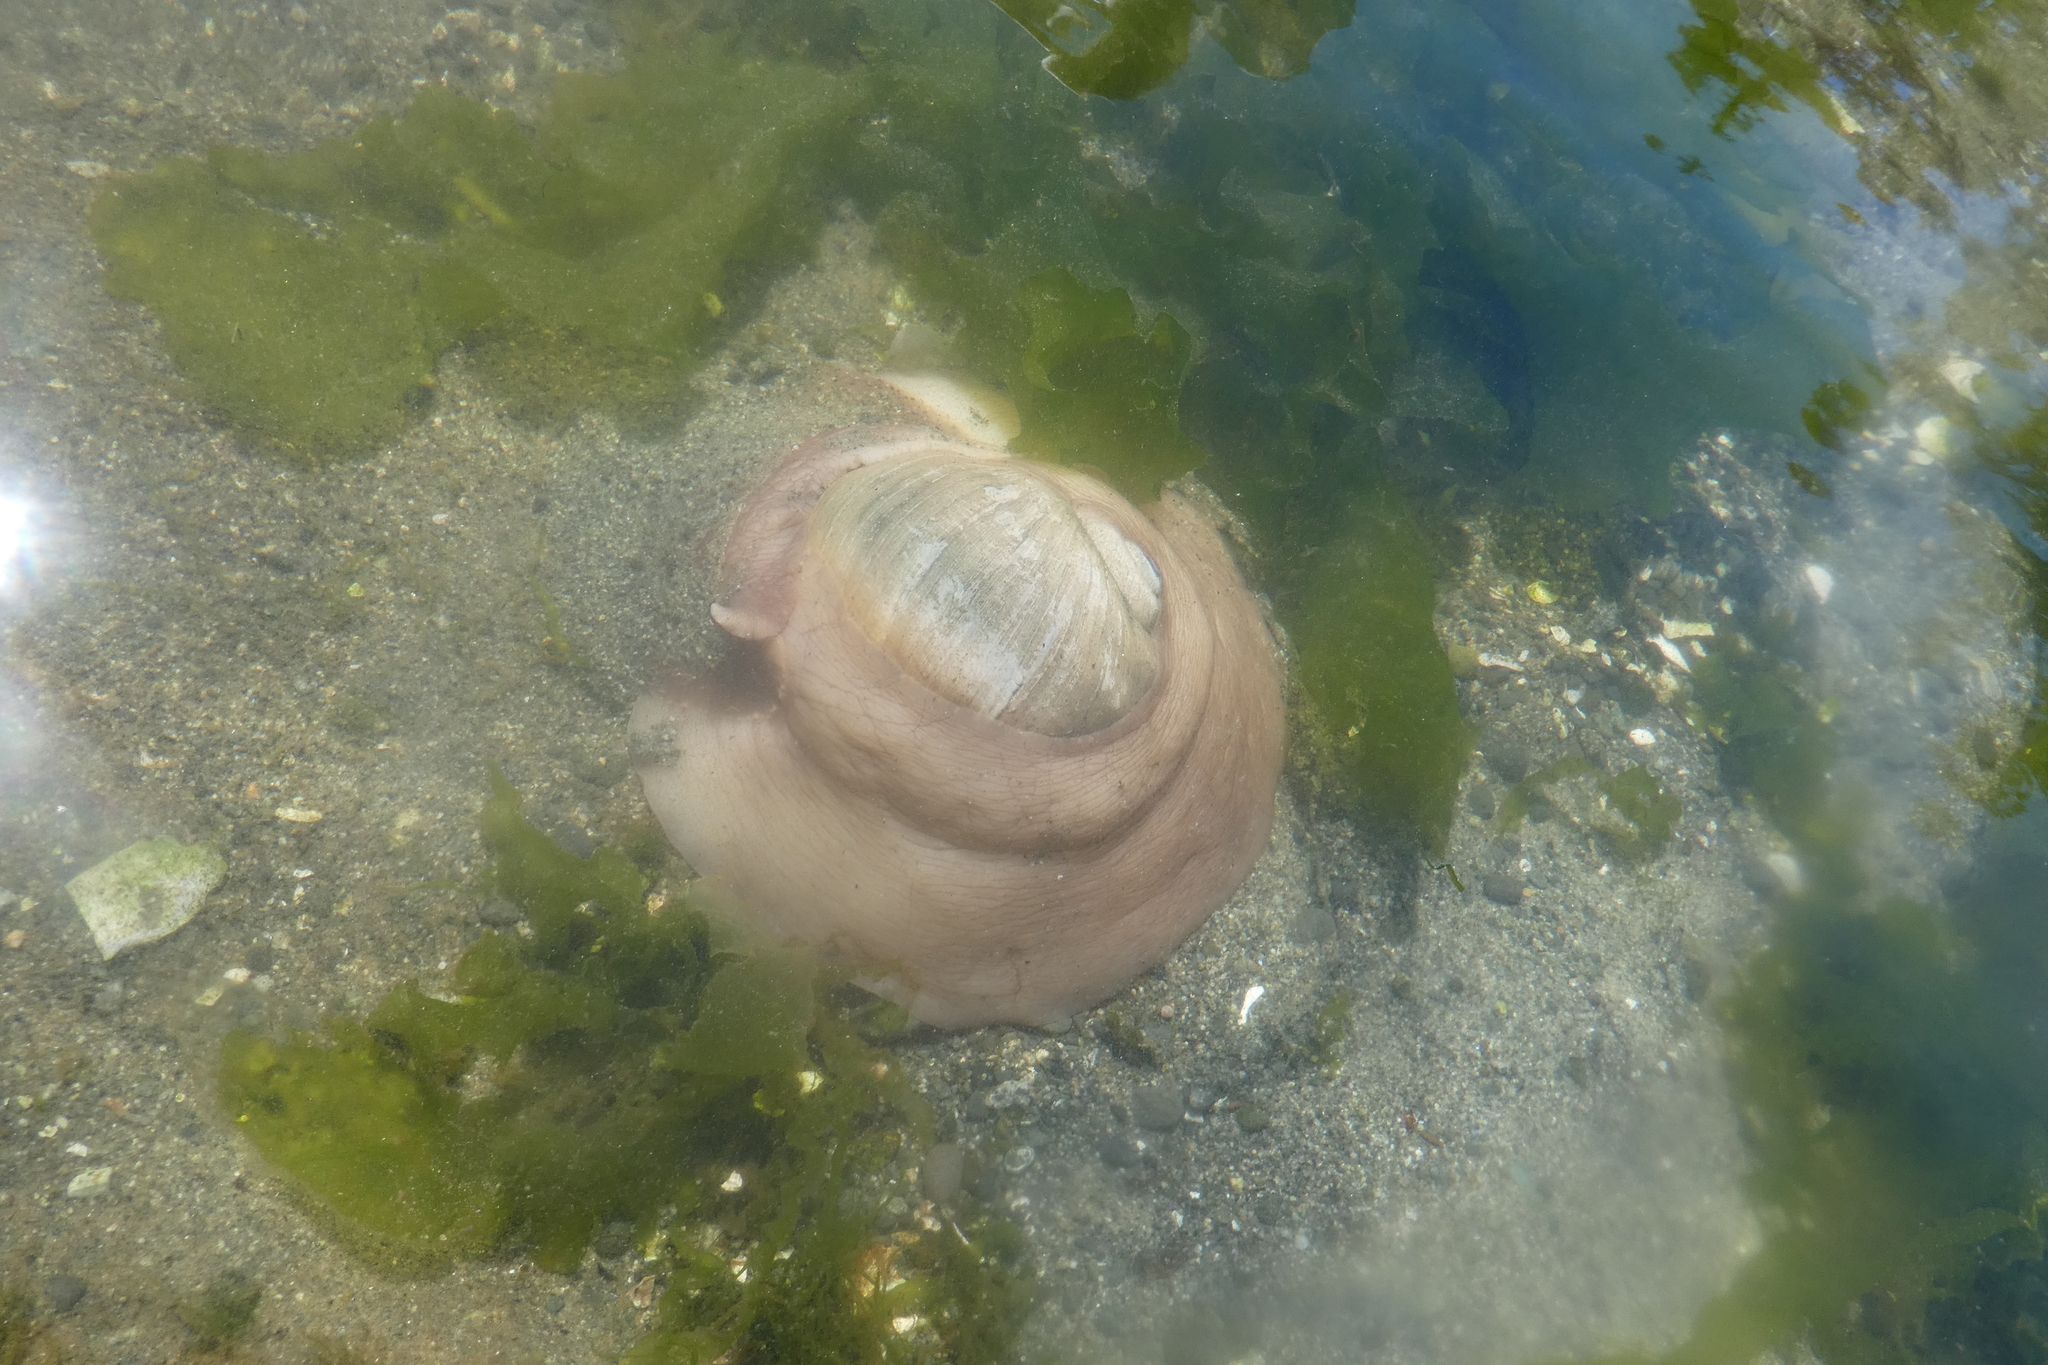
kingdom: Animalia
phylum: Mollusca
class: Gastropoda
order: Littorinimorpha
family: Naticidae
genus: Neverita
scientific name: Neverita lewisii
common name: Lewis' moonsnail
